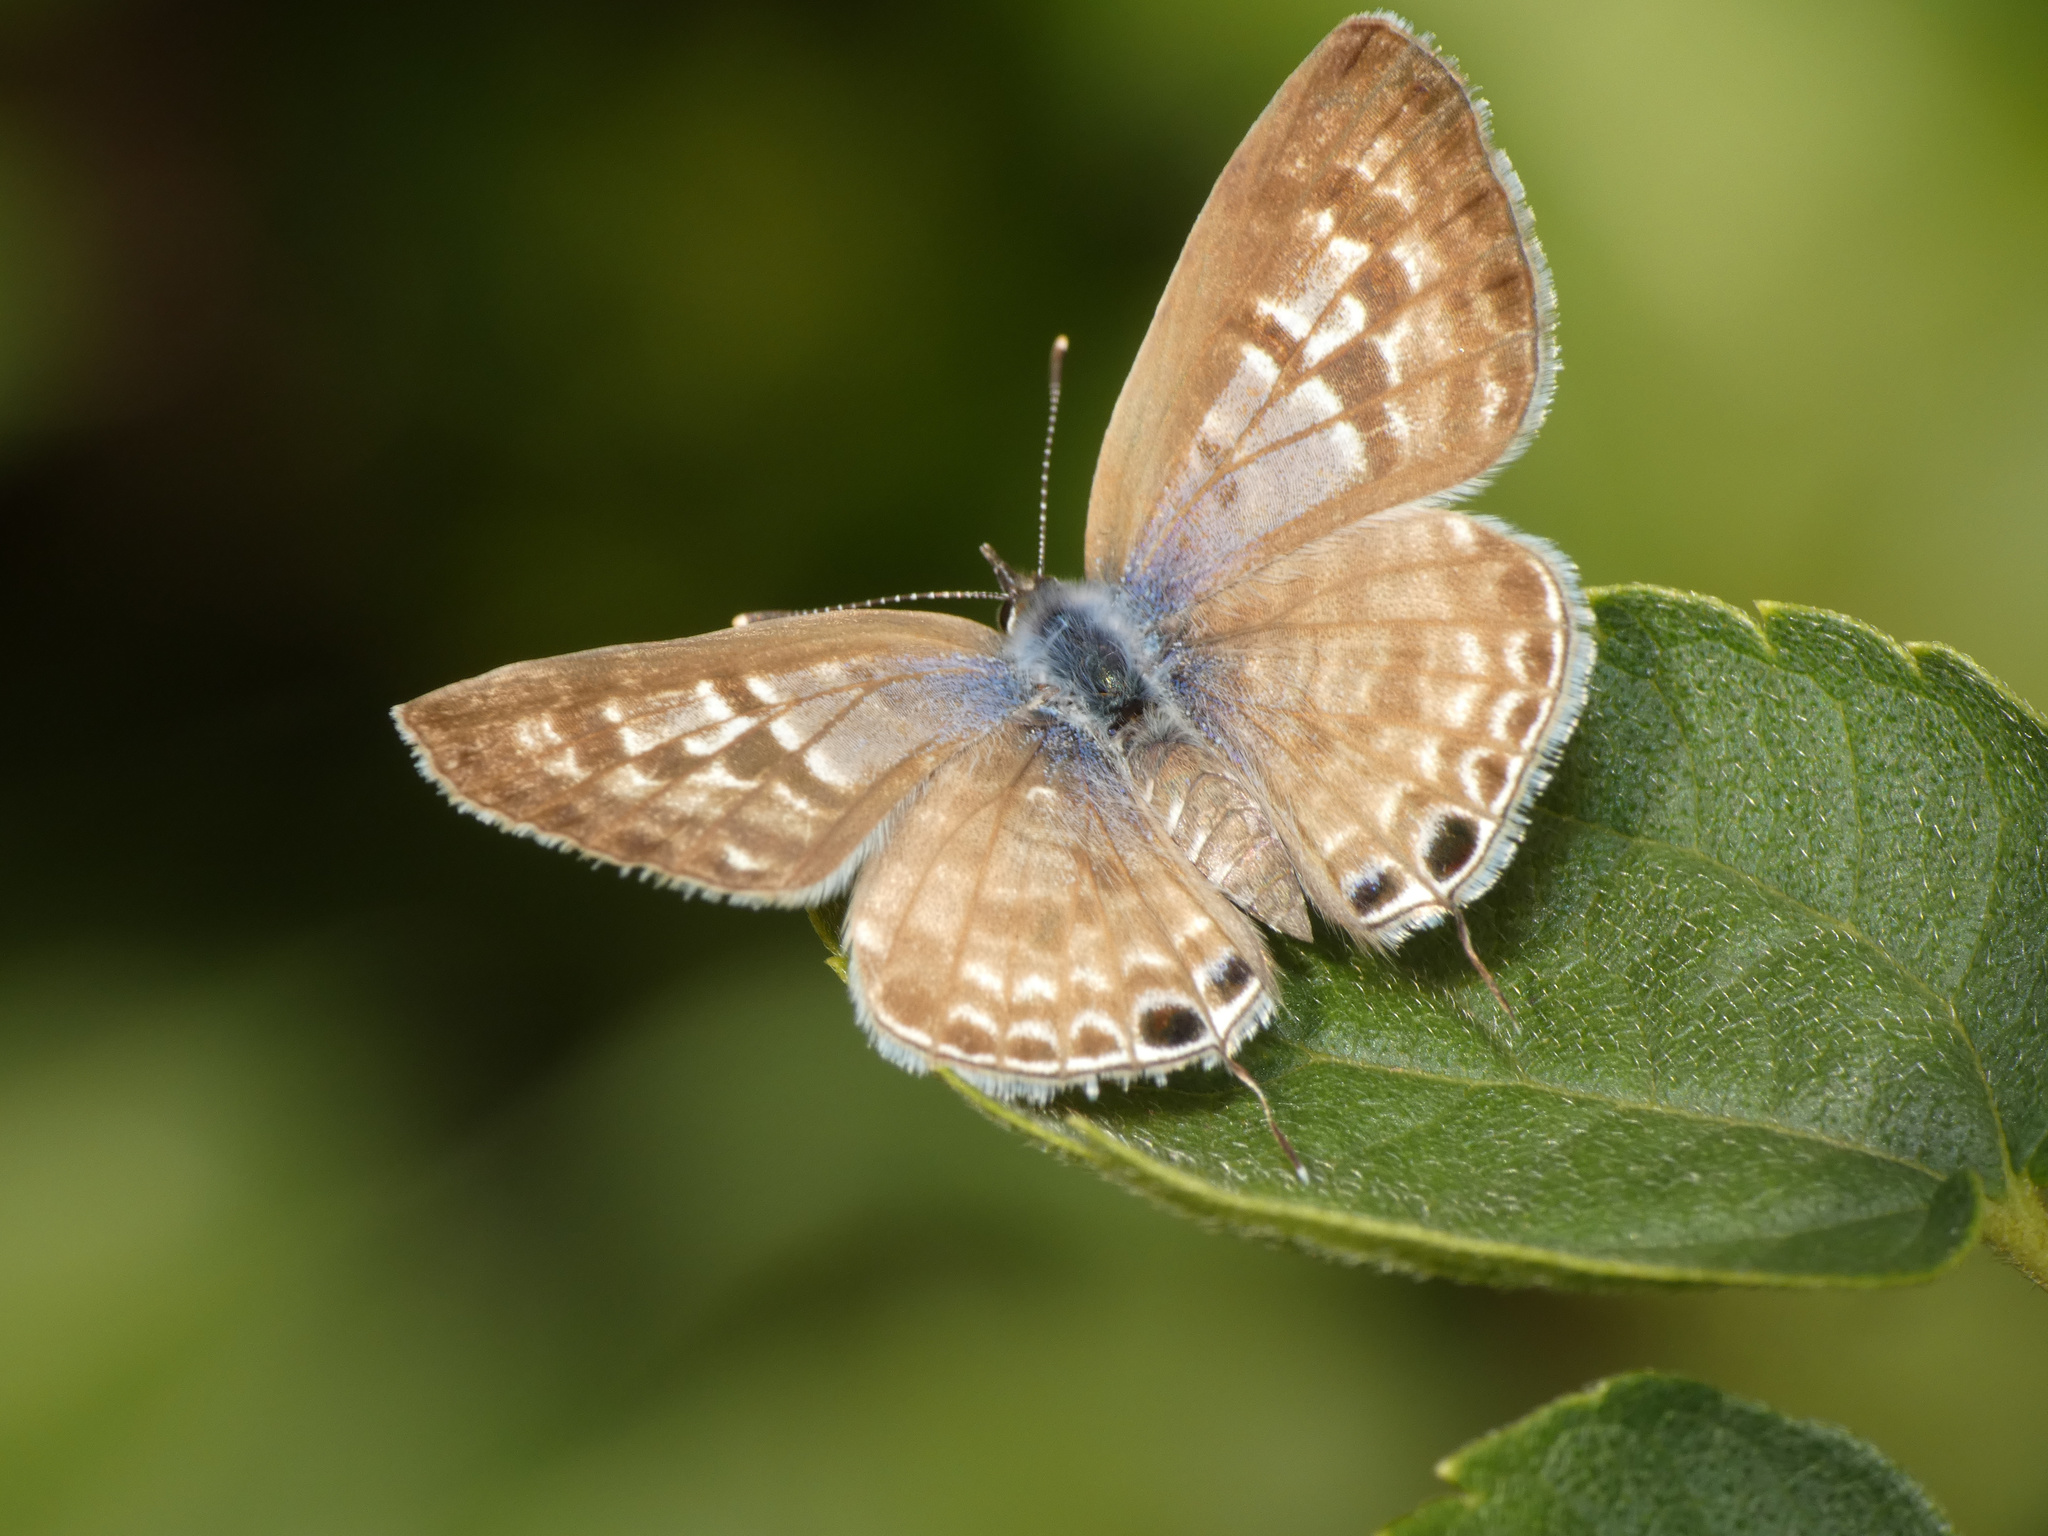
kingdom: Animalia
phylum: Arthropoda
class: Insecta
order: Lepidoptera
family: Lycaenidae
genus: Leptotes
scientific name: Leptotes
